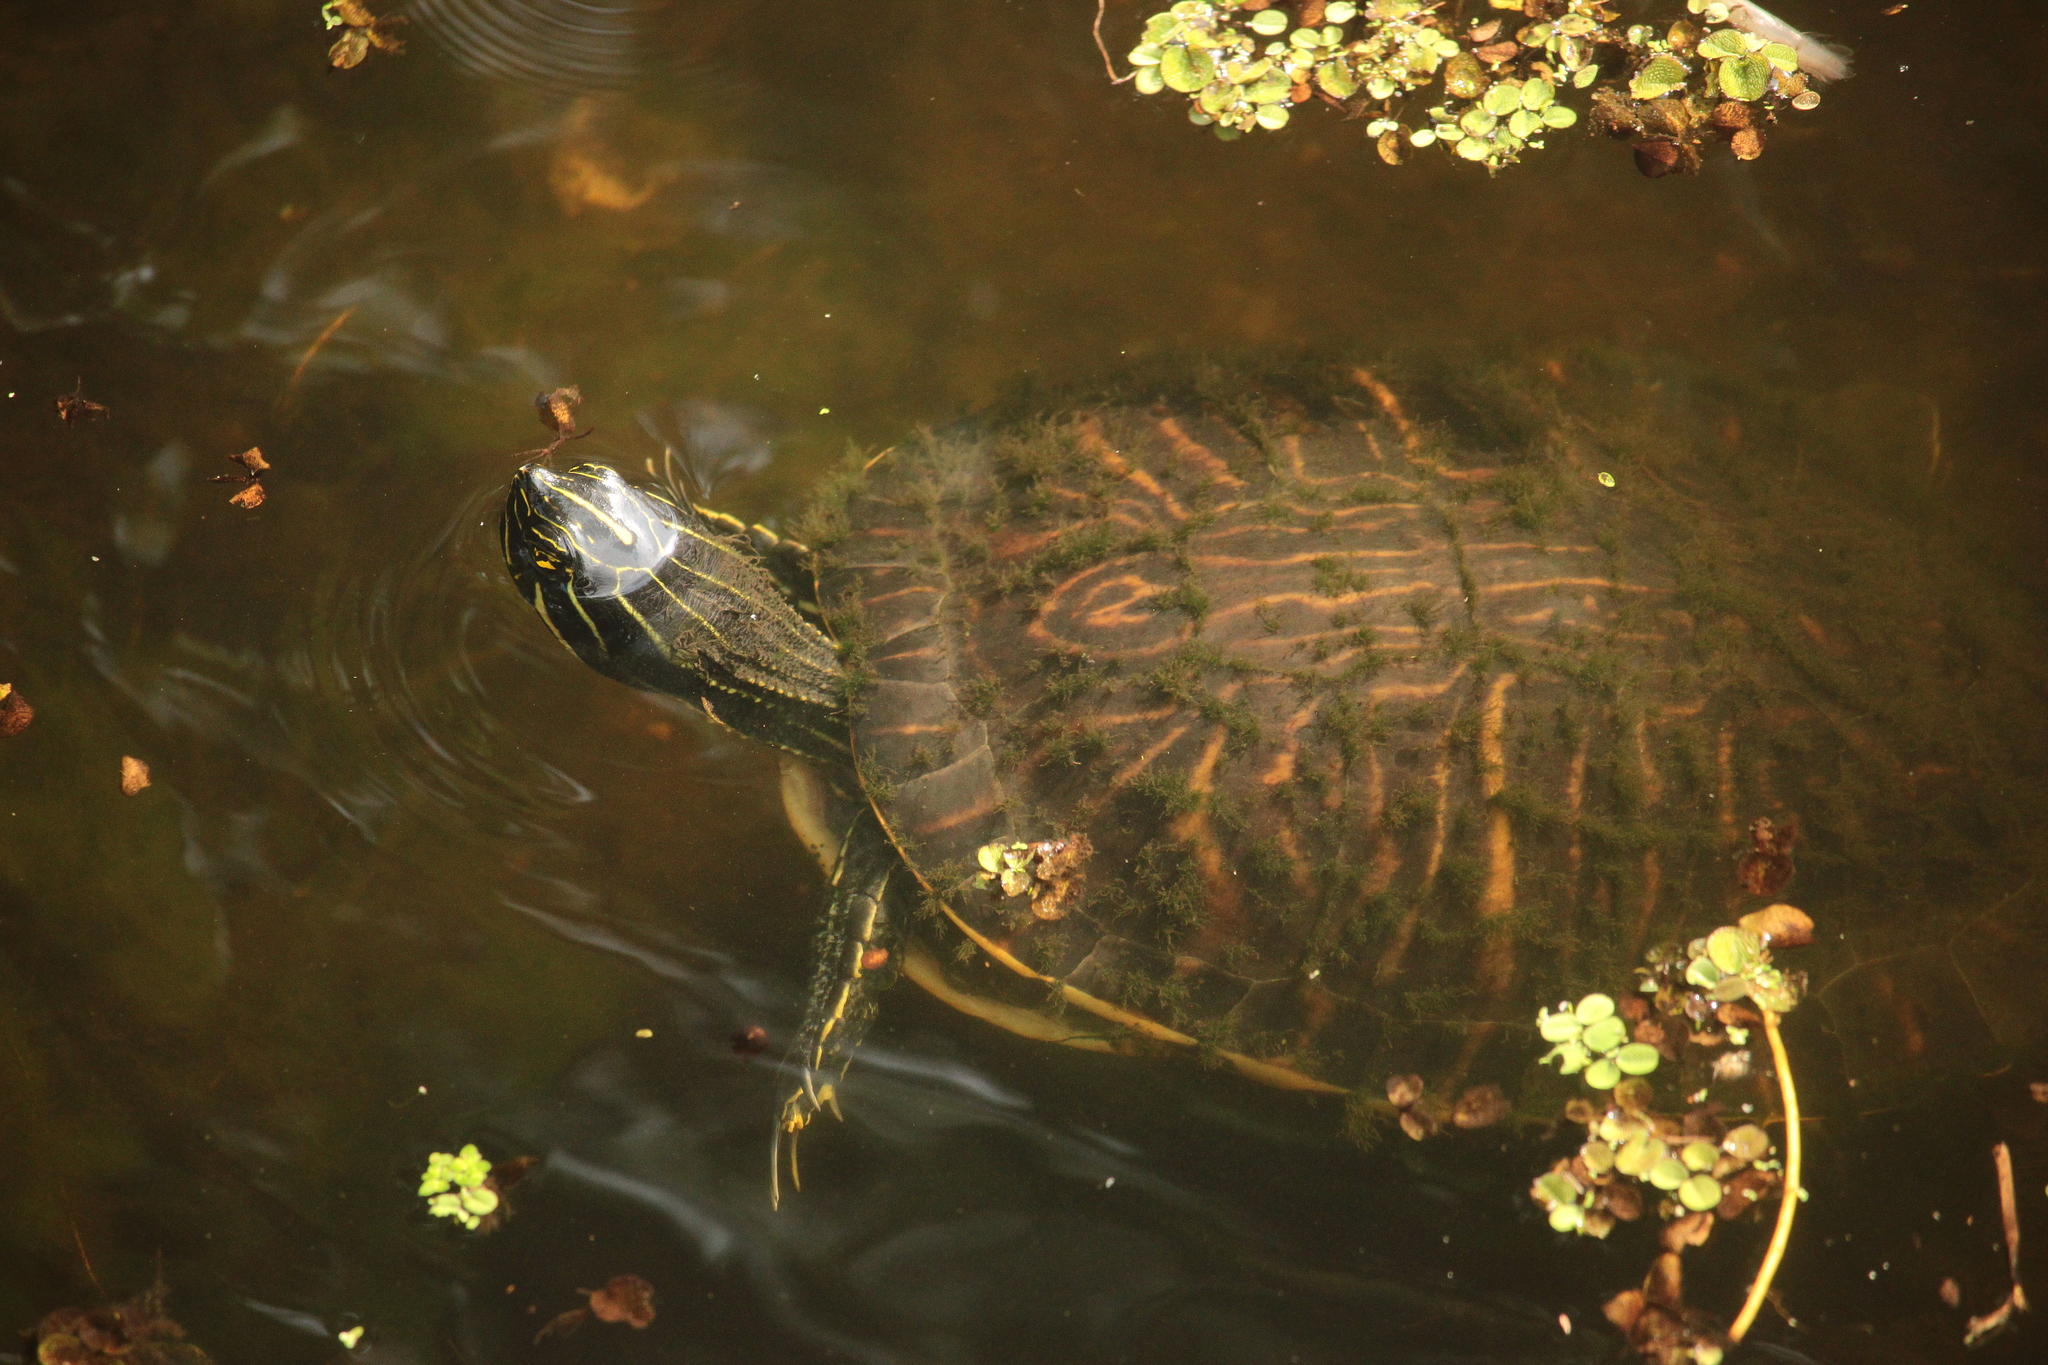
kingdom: Animalia
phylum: Chordata
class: Testudines
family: Emydidae
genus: Pseudemys
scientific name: Pseudemys nelsoni
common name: Florida red-bellied turtle
